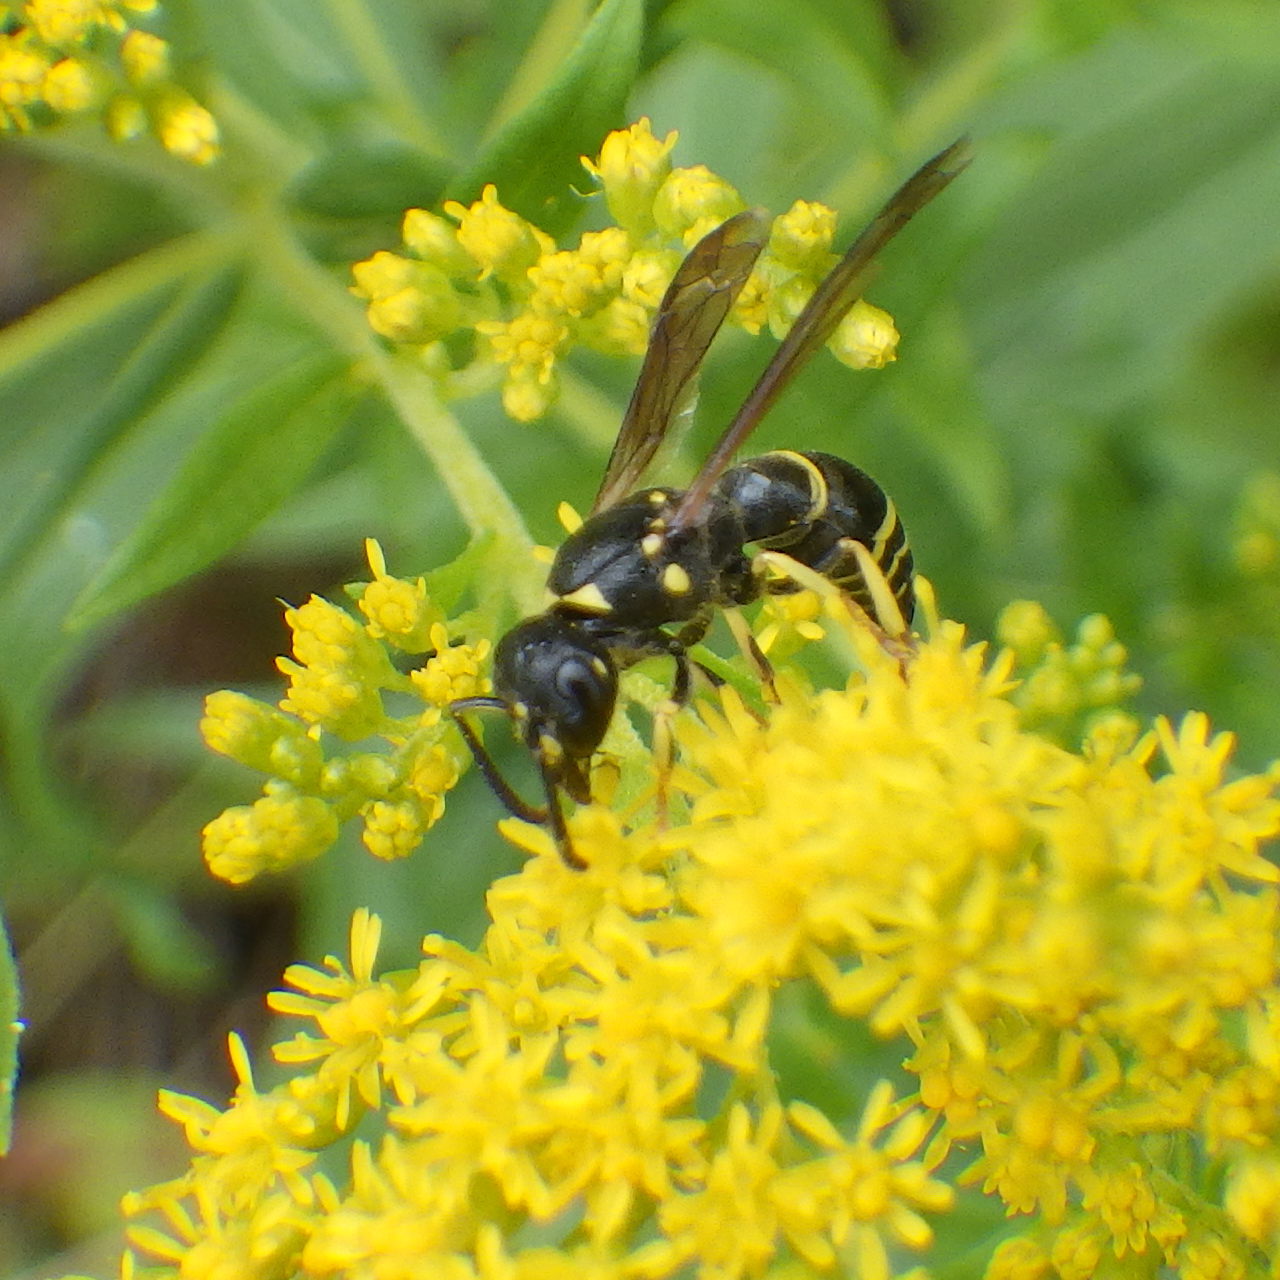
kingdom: Animalia
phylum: Arthropoda
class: Insecta
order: Hymenoptera
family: Vespidae
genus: Ancistrocerus
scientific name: Ancistrocerus adiabatus
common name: Bramble mason wasp
